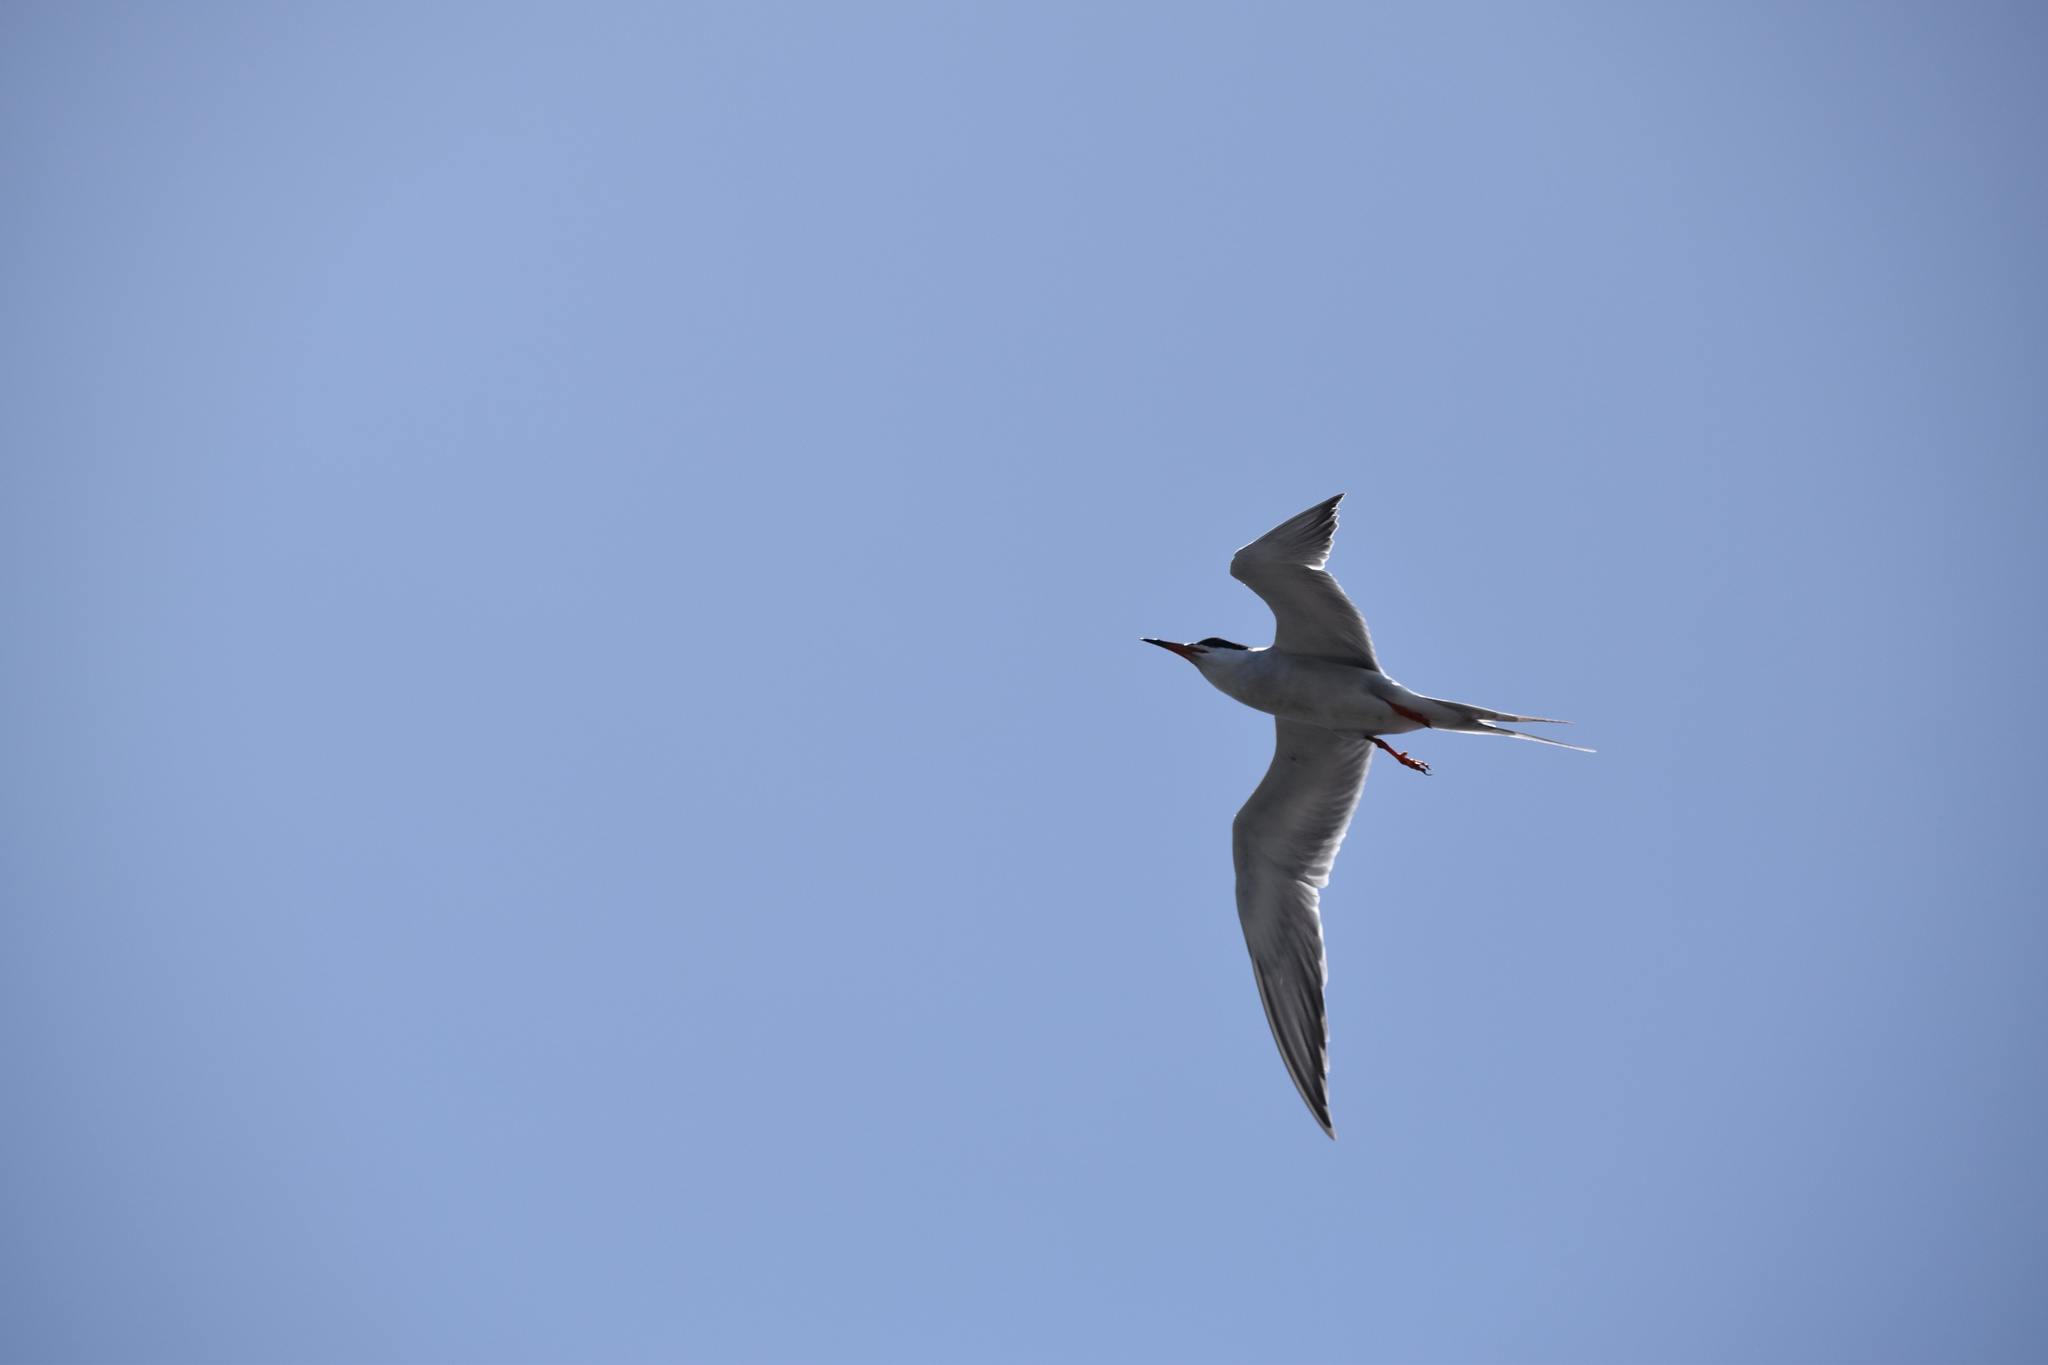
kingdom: Animalia
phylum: Chordata
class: Aves
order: Charadriiformes
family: Laridae
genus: Sterna
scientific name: Sterna forsteri
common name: Forster's tern
